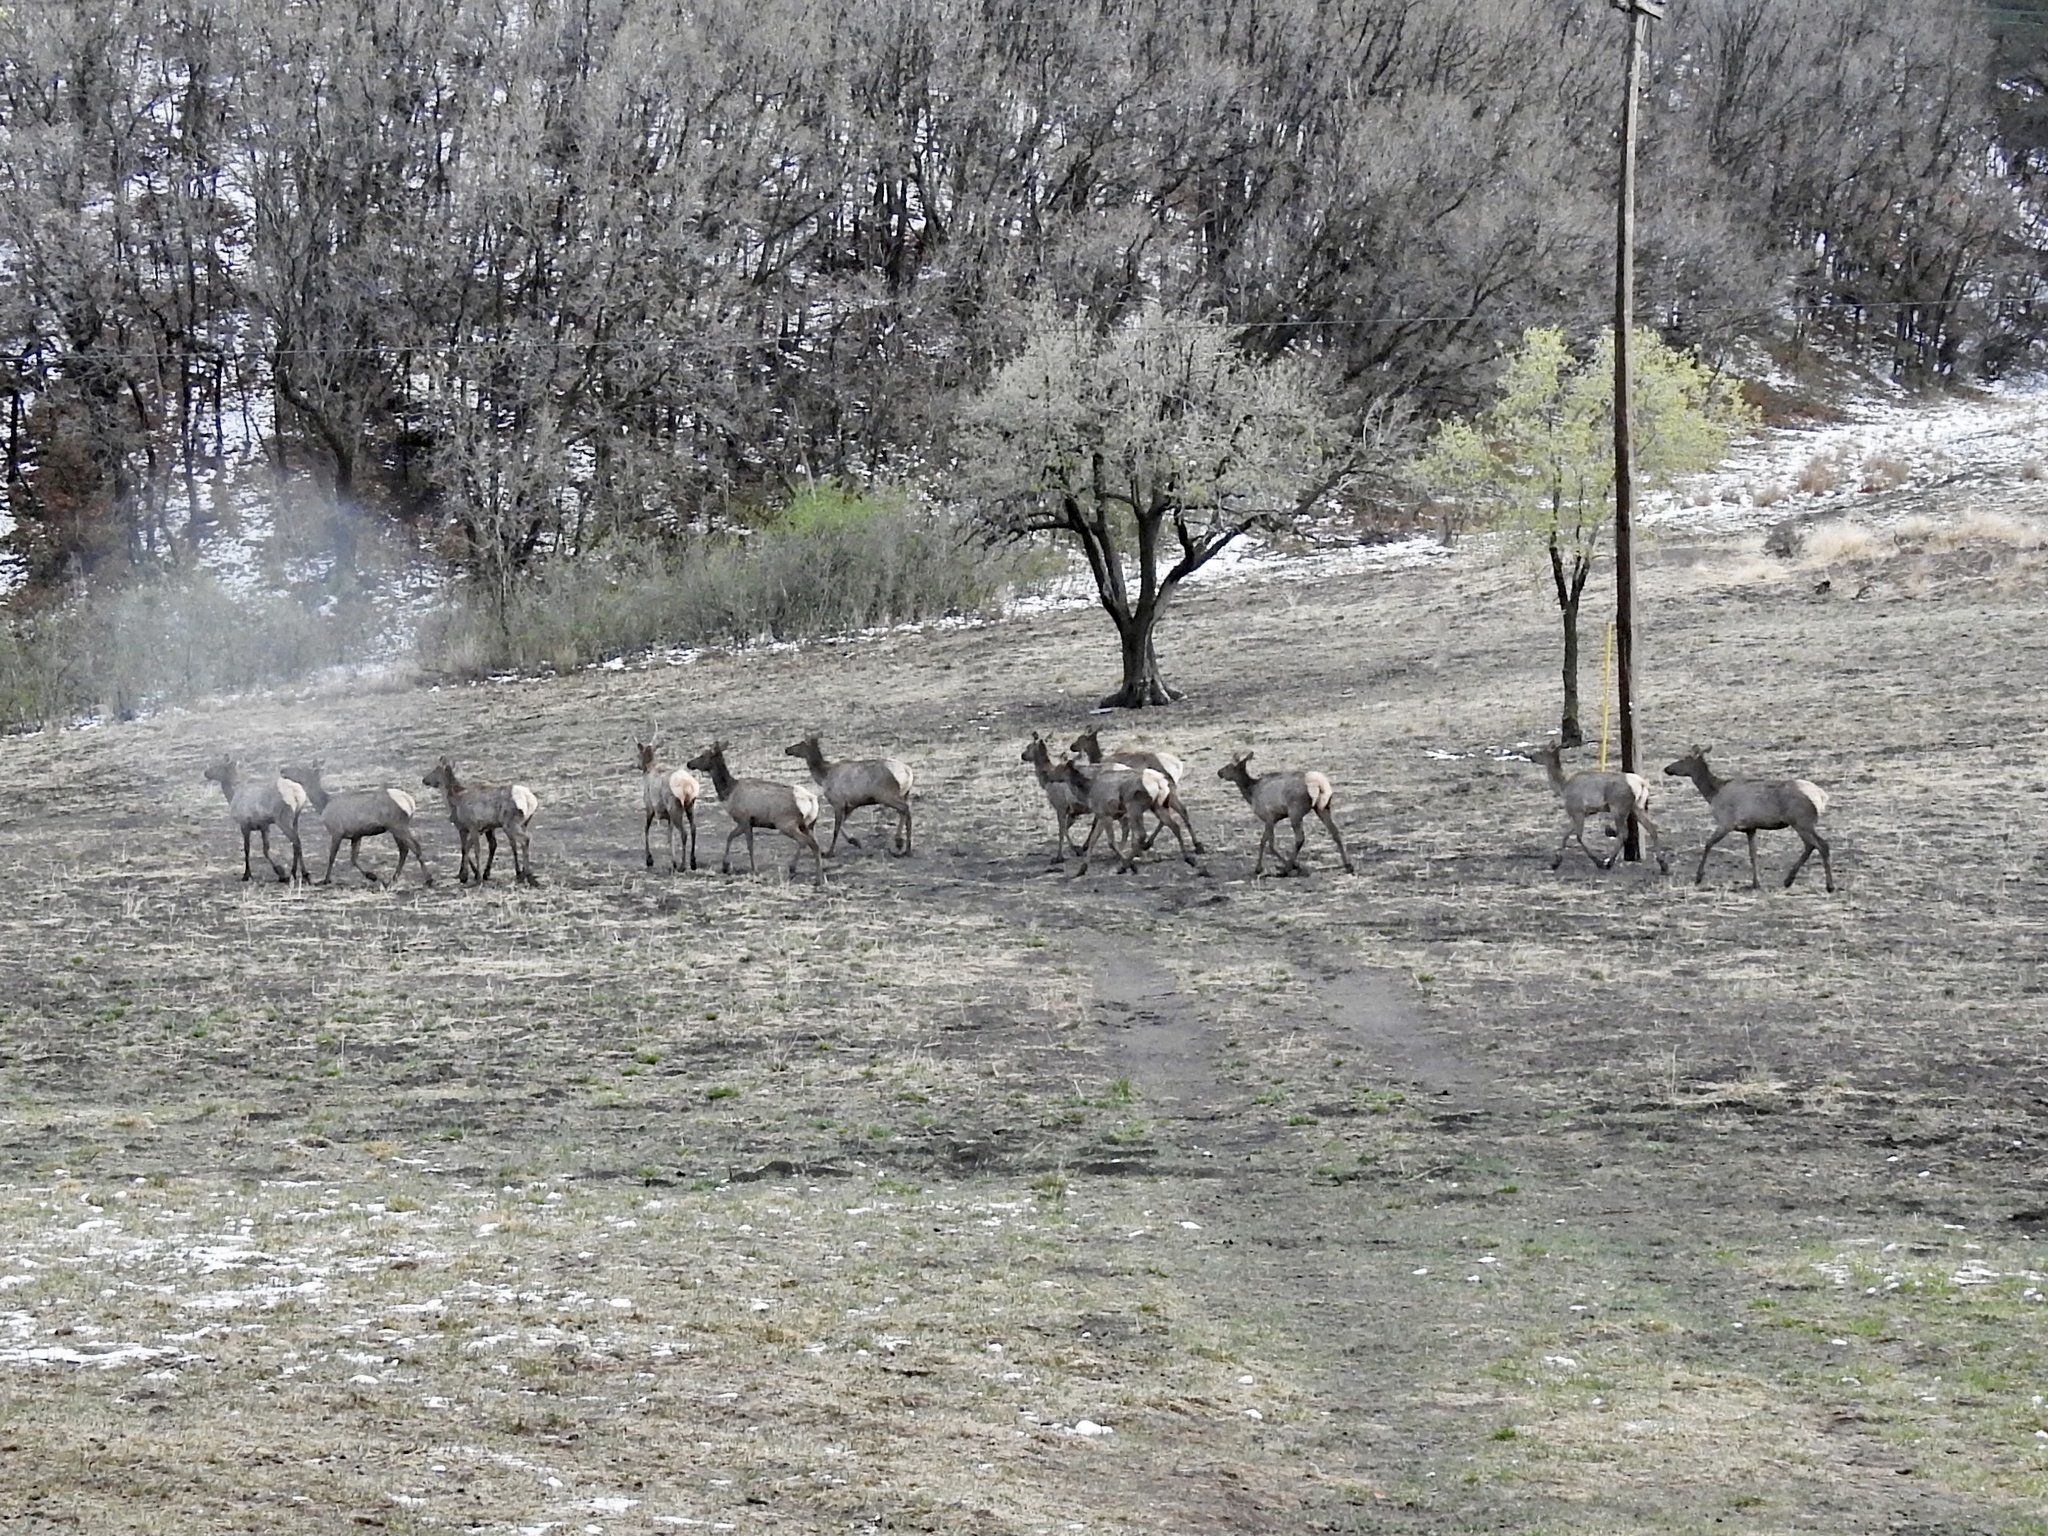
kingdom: Animalia
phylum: Chordata
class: Mammalia
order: Artiodactyla
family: Cervidae
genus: Cervus
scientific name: Cervus elaphus
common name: Red deer
